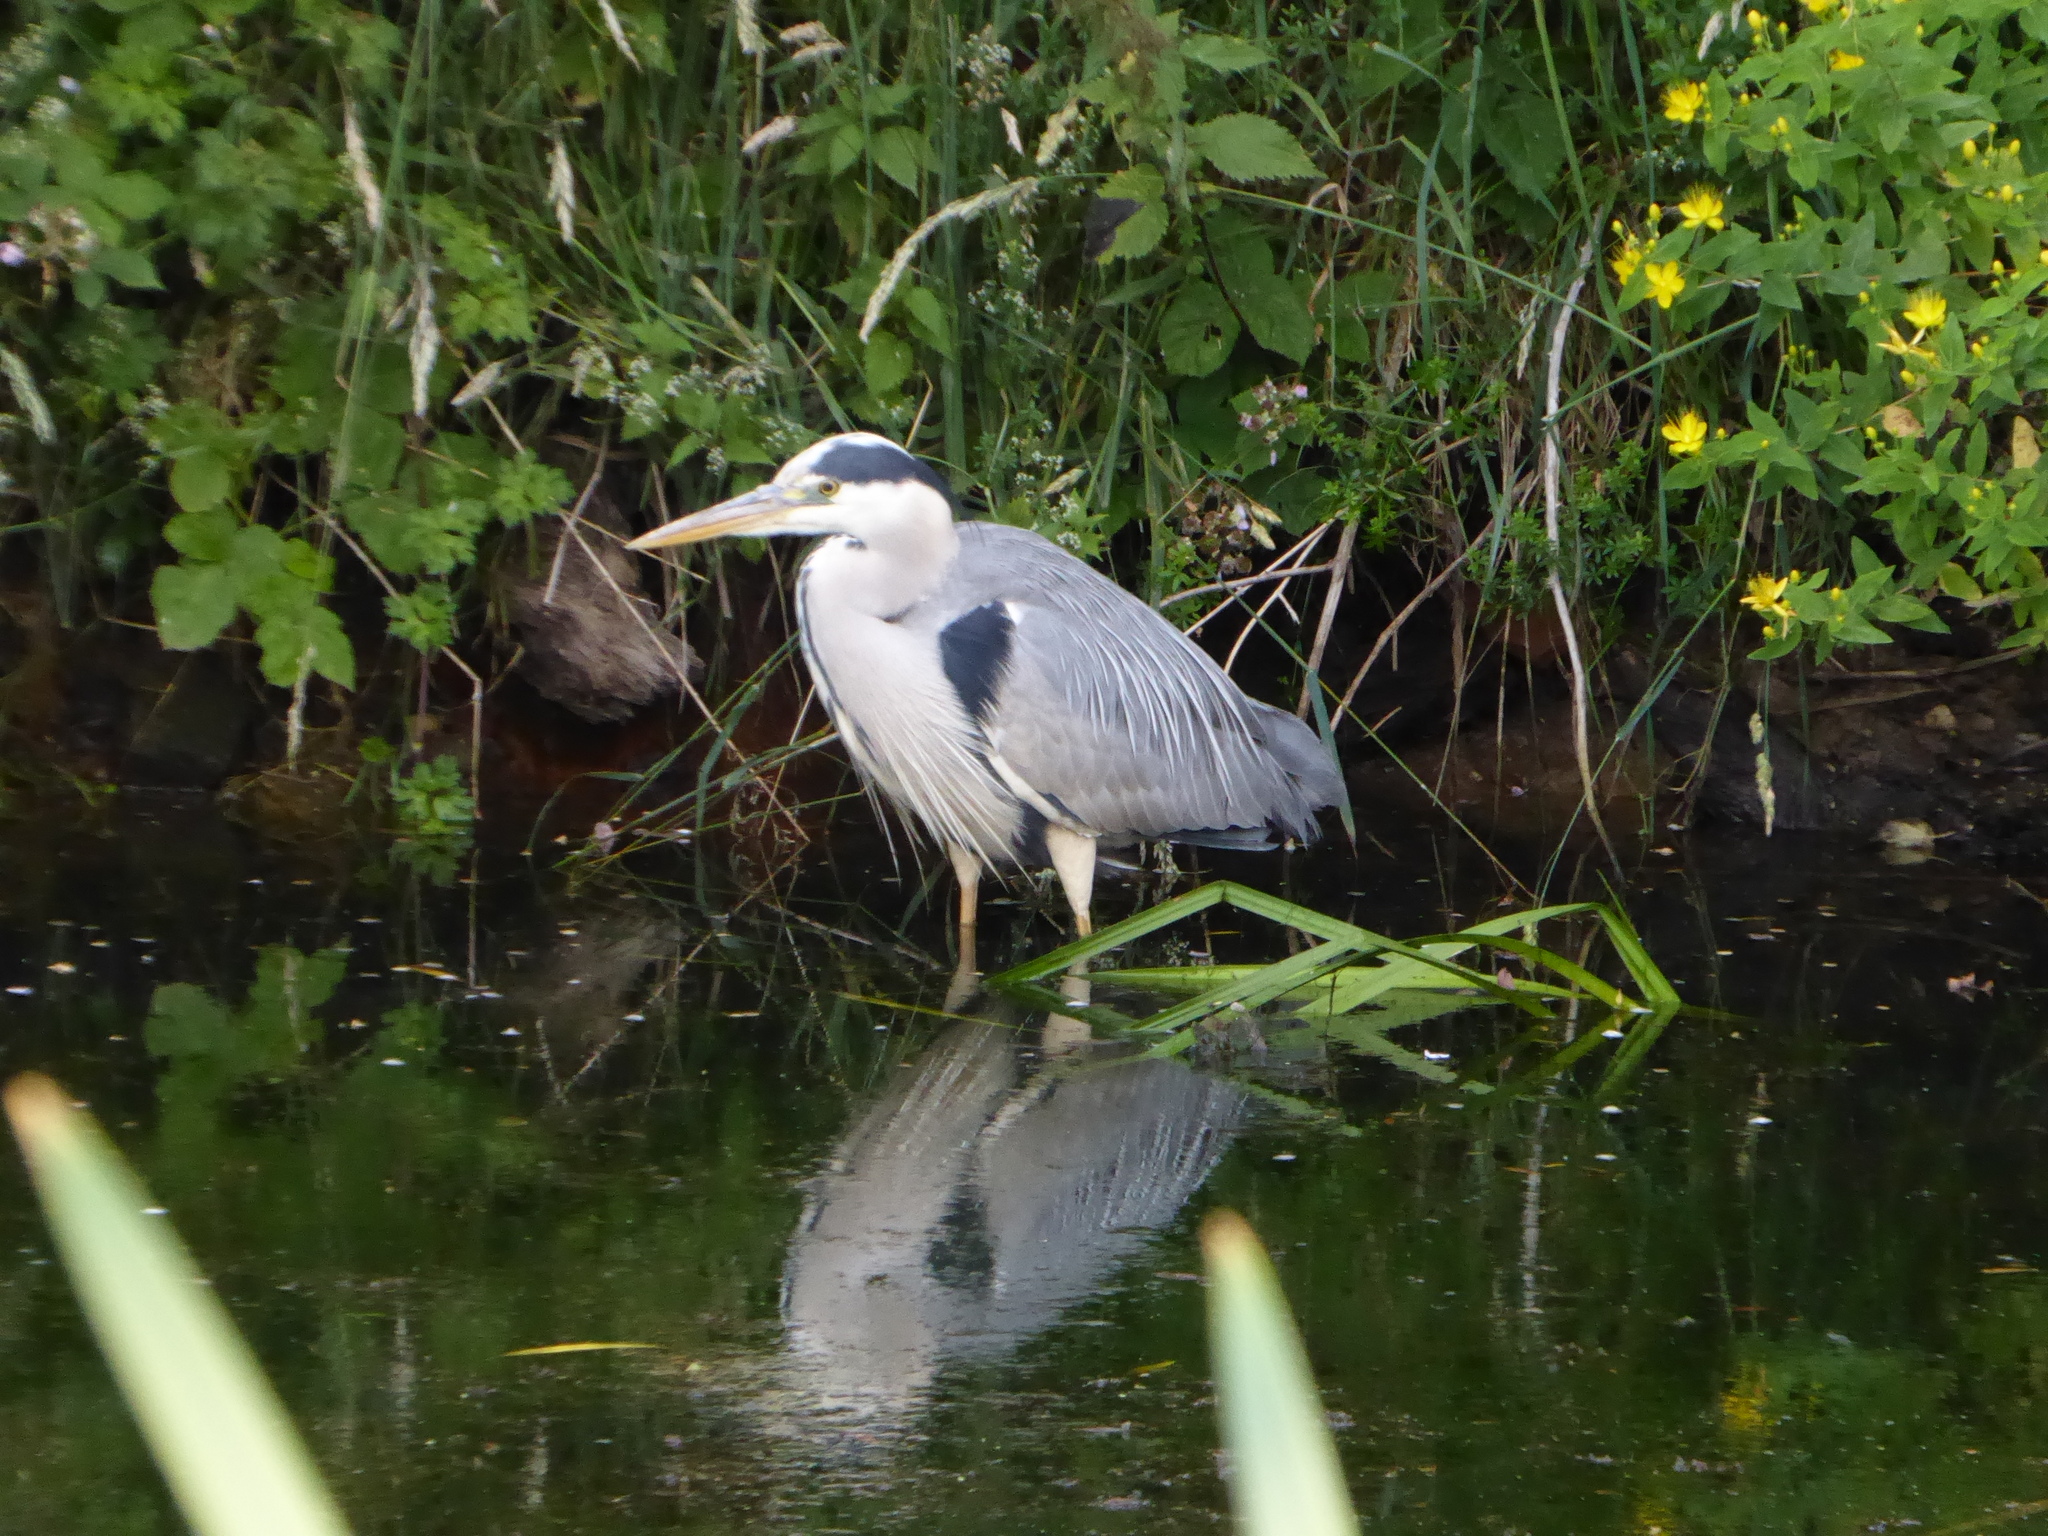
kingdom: Animalia
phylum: Chordata
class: Aves
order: Pelecaniformes
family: Ardeidae
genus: Ardea
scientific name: Ardea cinerea
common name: Grey heron
